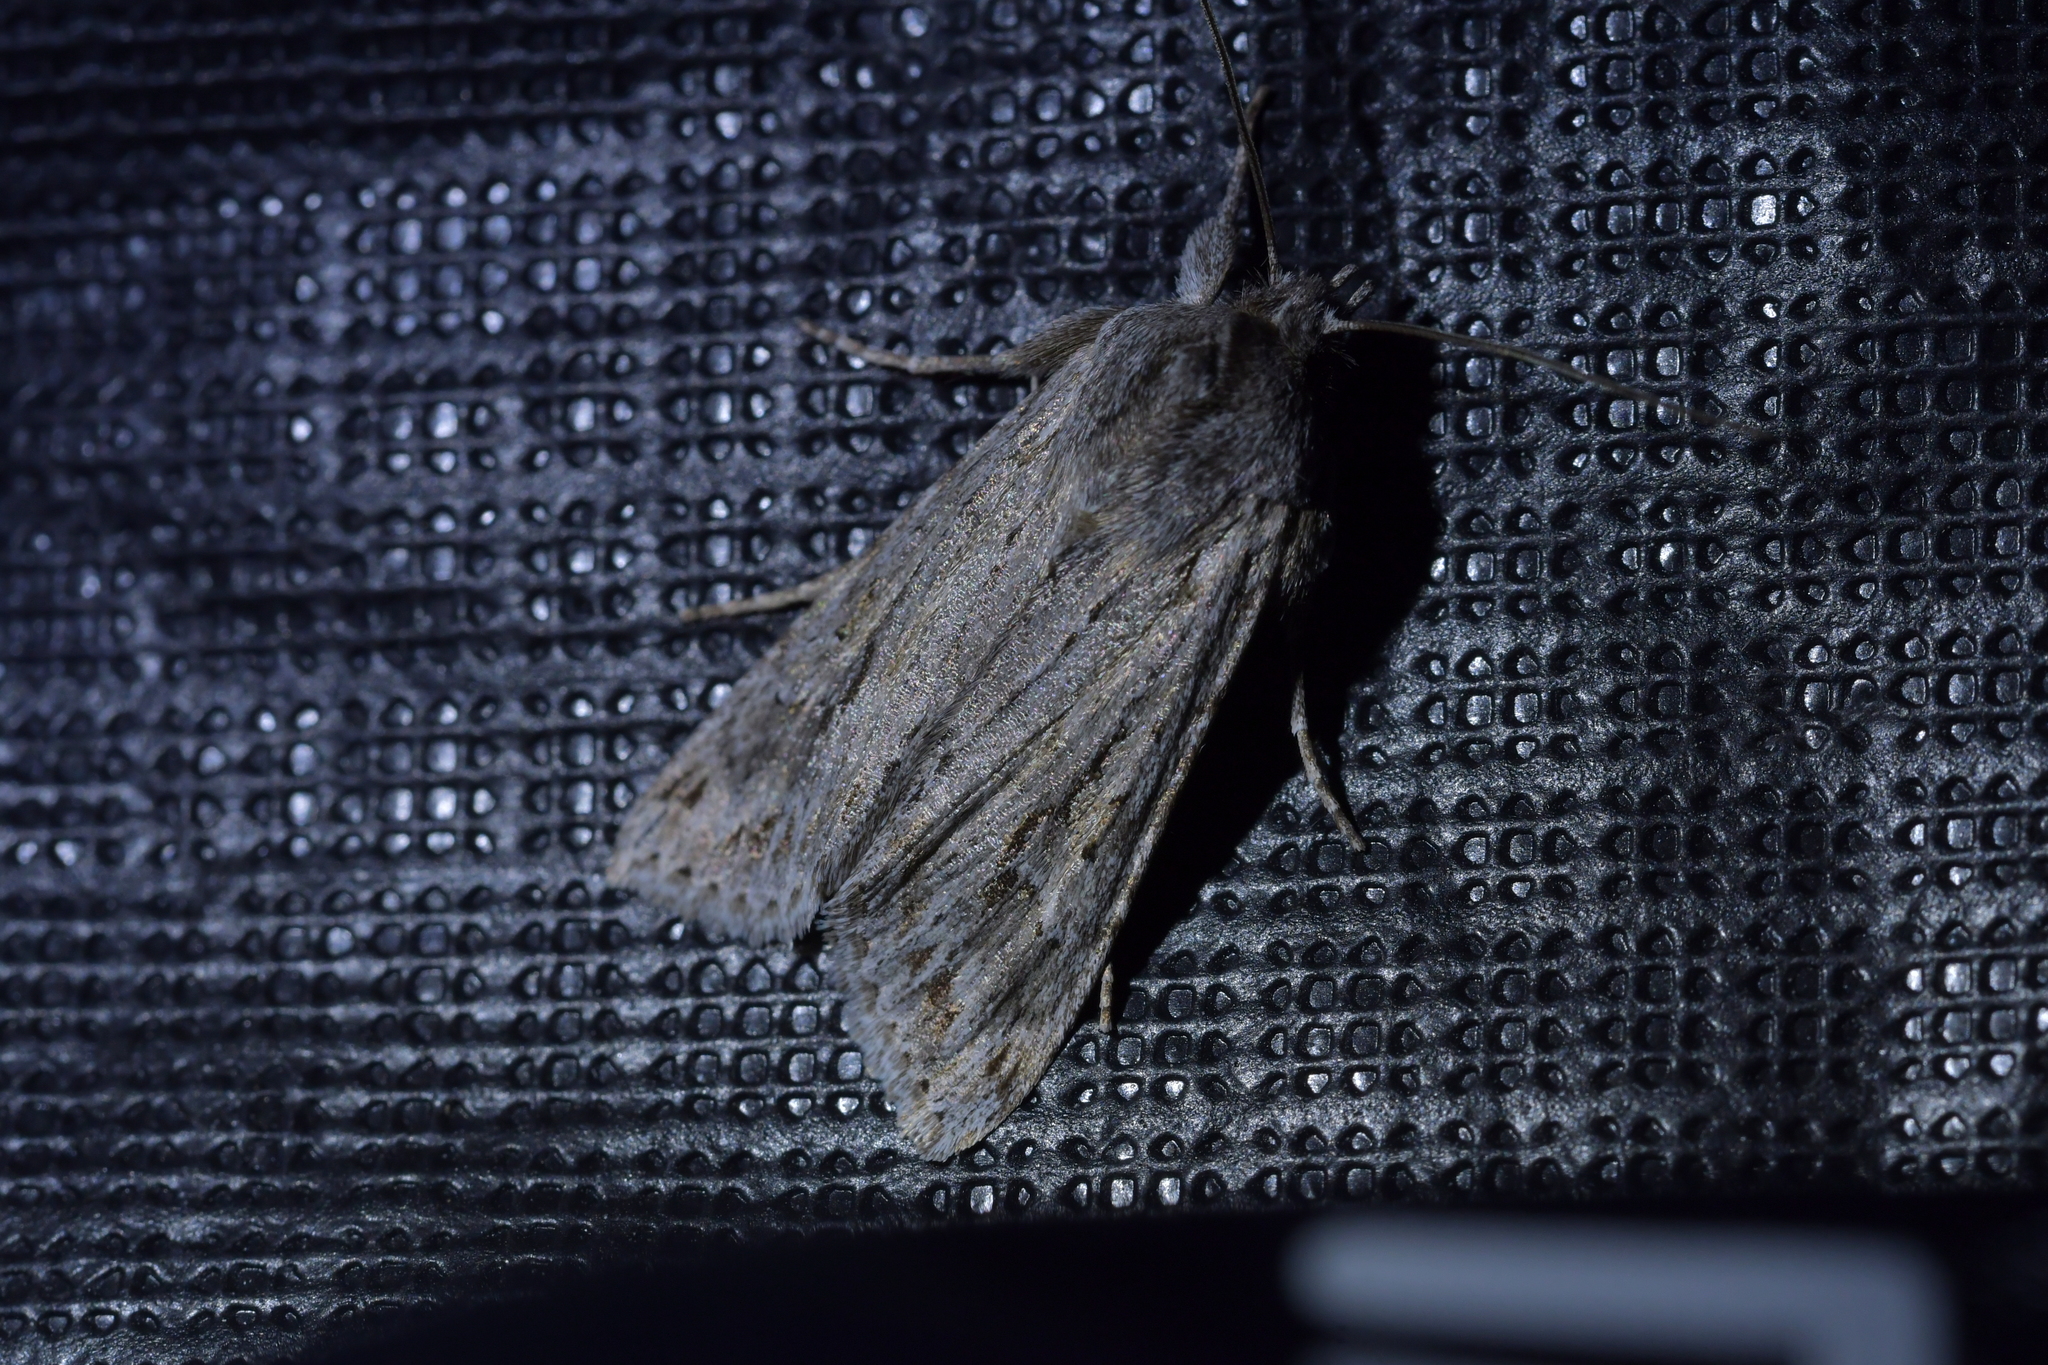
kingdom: Animalia
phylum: Arthropoda
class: Insecta
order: Lepidoptera
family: Noctuidae
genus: Physetica
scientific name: Physetica sequens
